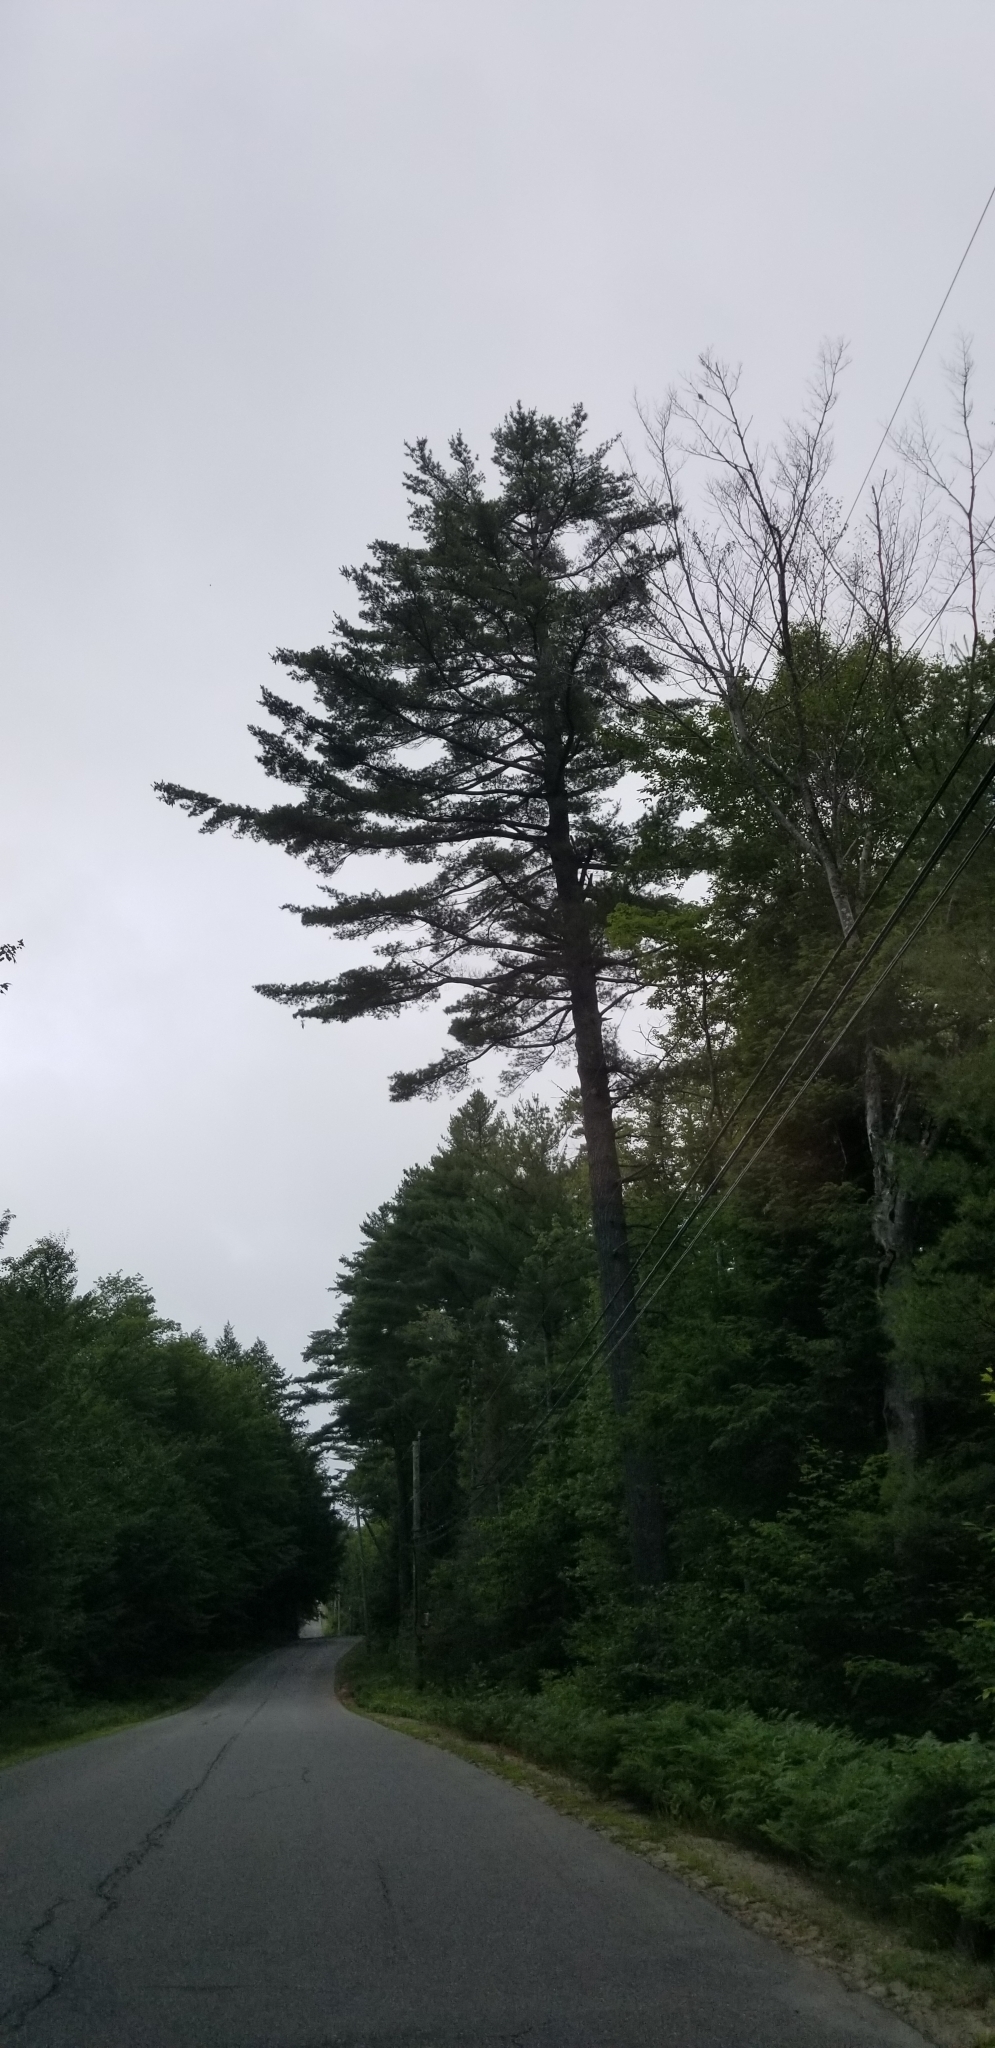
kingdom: Plantae
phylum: Tracheophyta
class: Pinopsida
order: Pinales
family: Pinaceae
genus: Pinus
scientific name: Pinus strobus
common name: Weymouth pine
